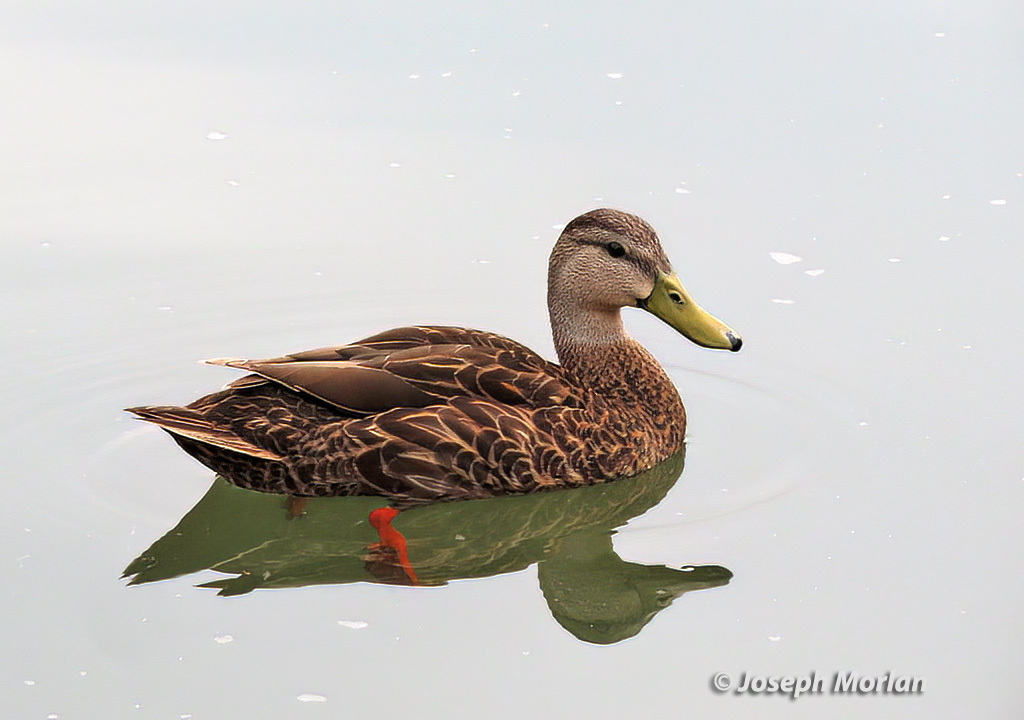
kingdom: Animalia
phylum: Chordata
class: Aves
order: Anseriformes
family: Anatidae
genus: Anas
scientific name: Anas fulvigula
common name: Mottled duck
